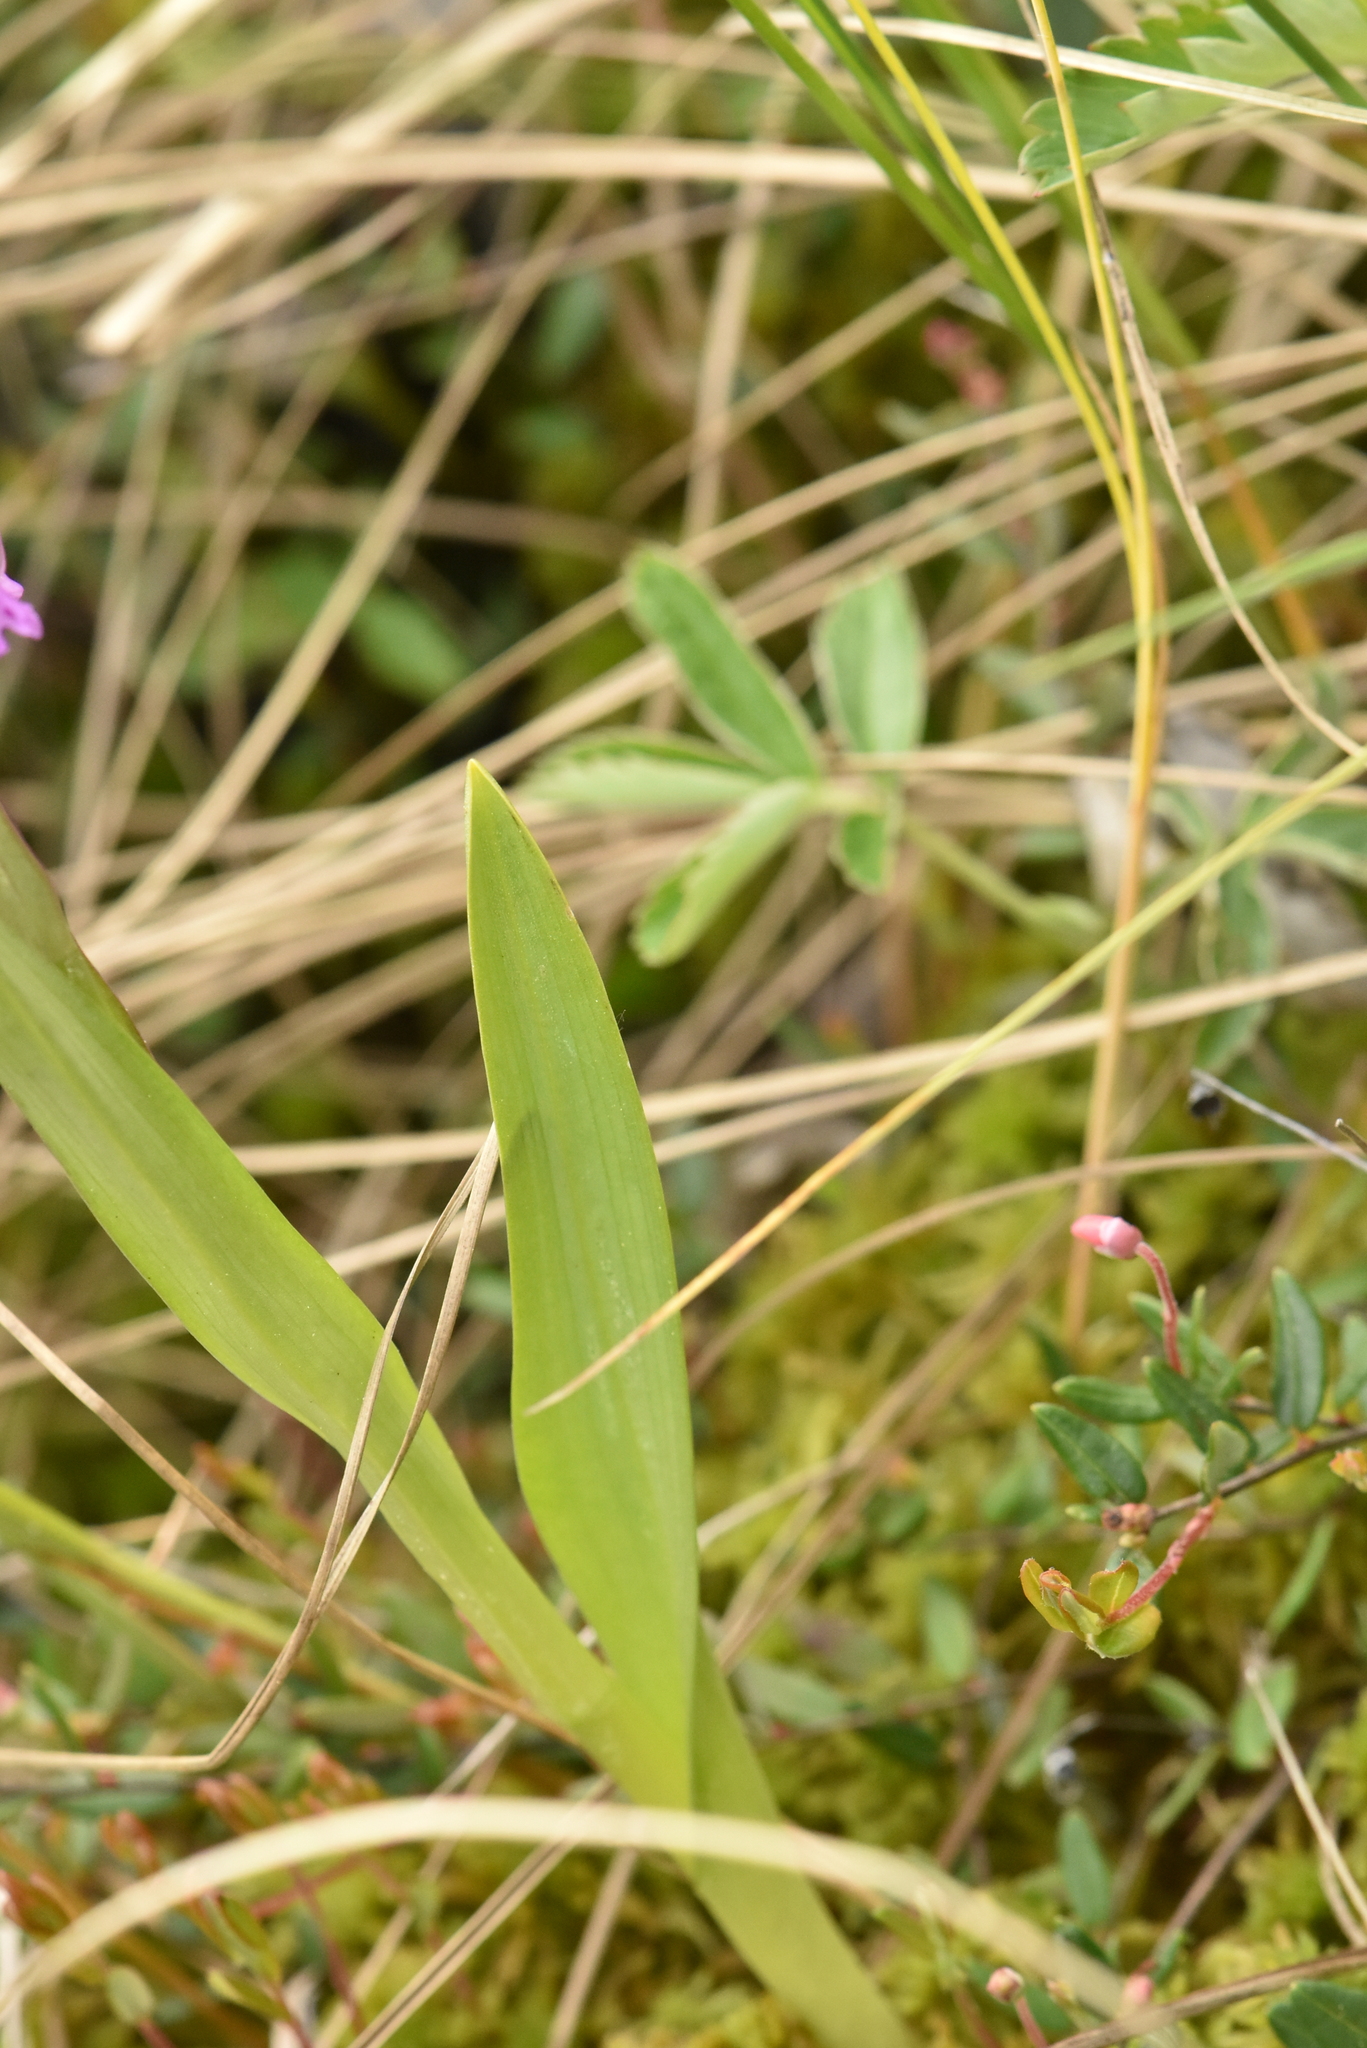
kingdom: Plantae
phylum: Tracheophyta
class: Liliopsida
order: Asparagales
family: Orchidaceae
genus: Dactylorhiza
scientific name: Dactylorhiza incarnata
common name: Early marsh-orchid
